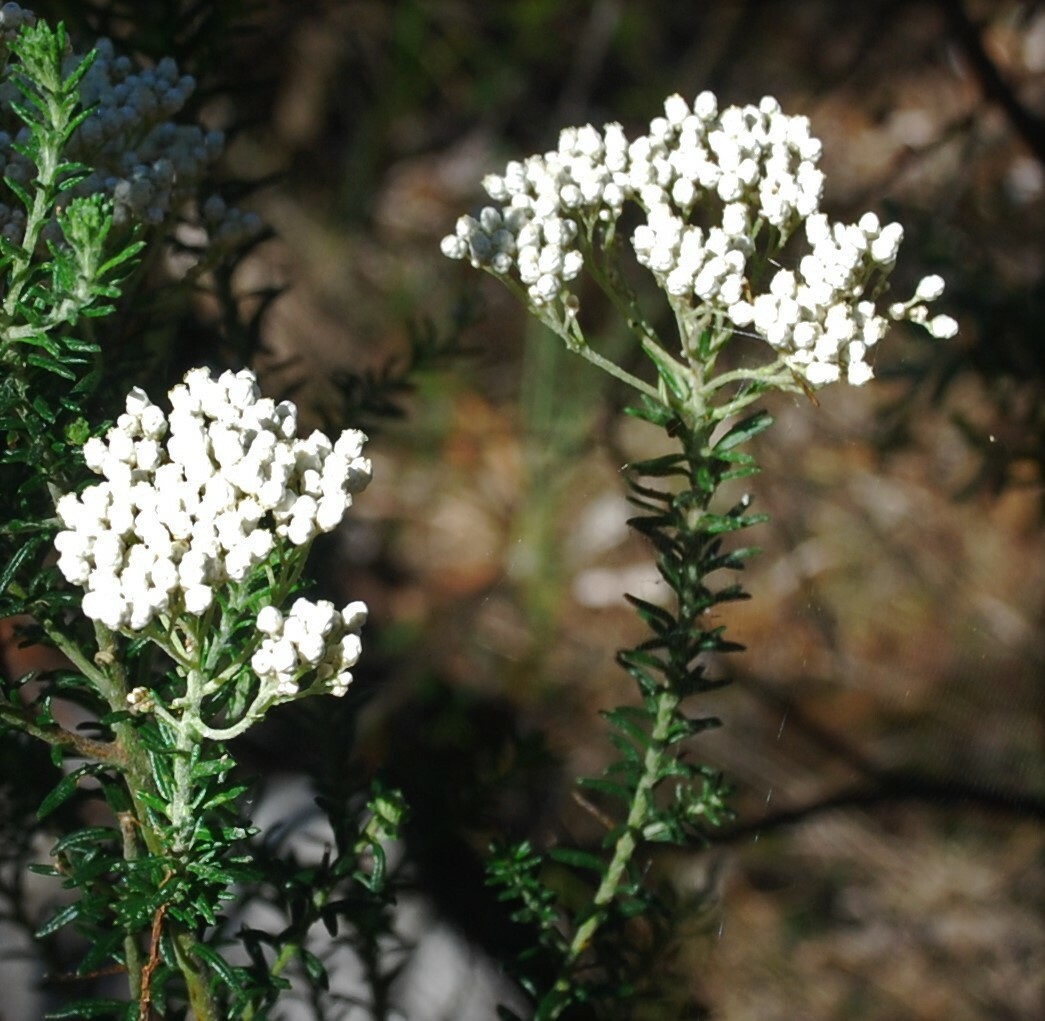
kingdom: Plantae
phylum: Tracheophyta
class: Magnoliopsida
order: Asterales
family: Asteraceae
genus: Ozothamnus
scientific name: Ozothamnus diosmifolius
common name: White-dogwood
